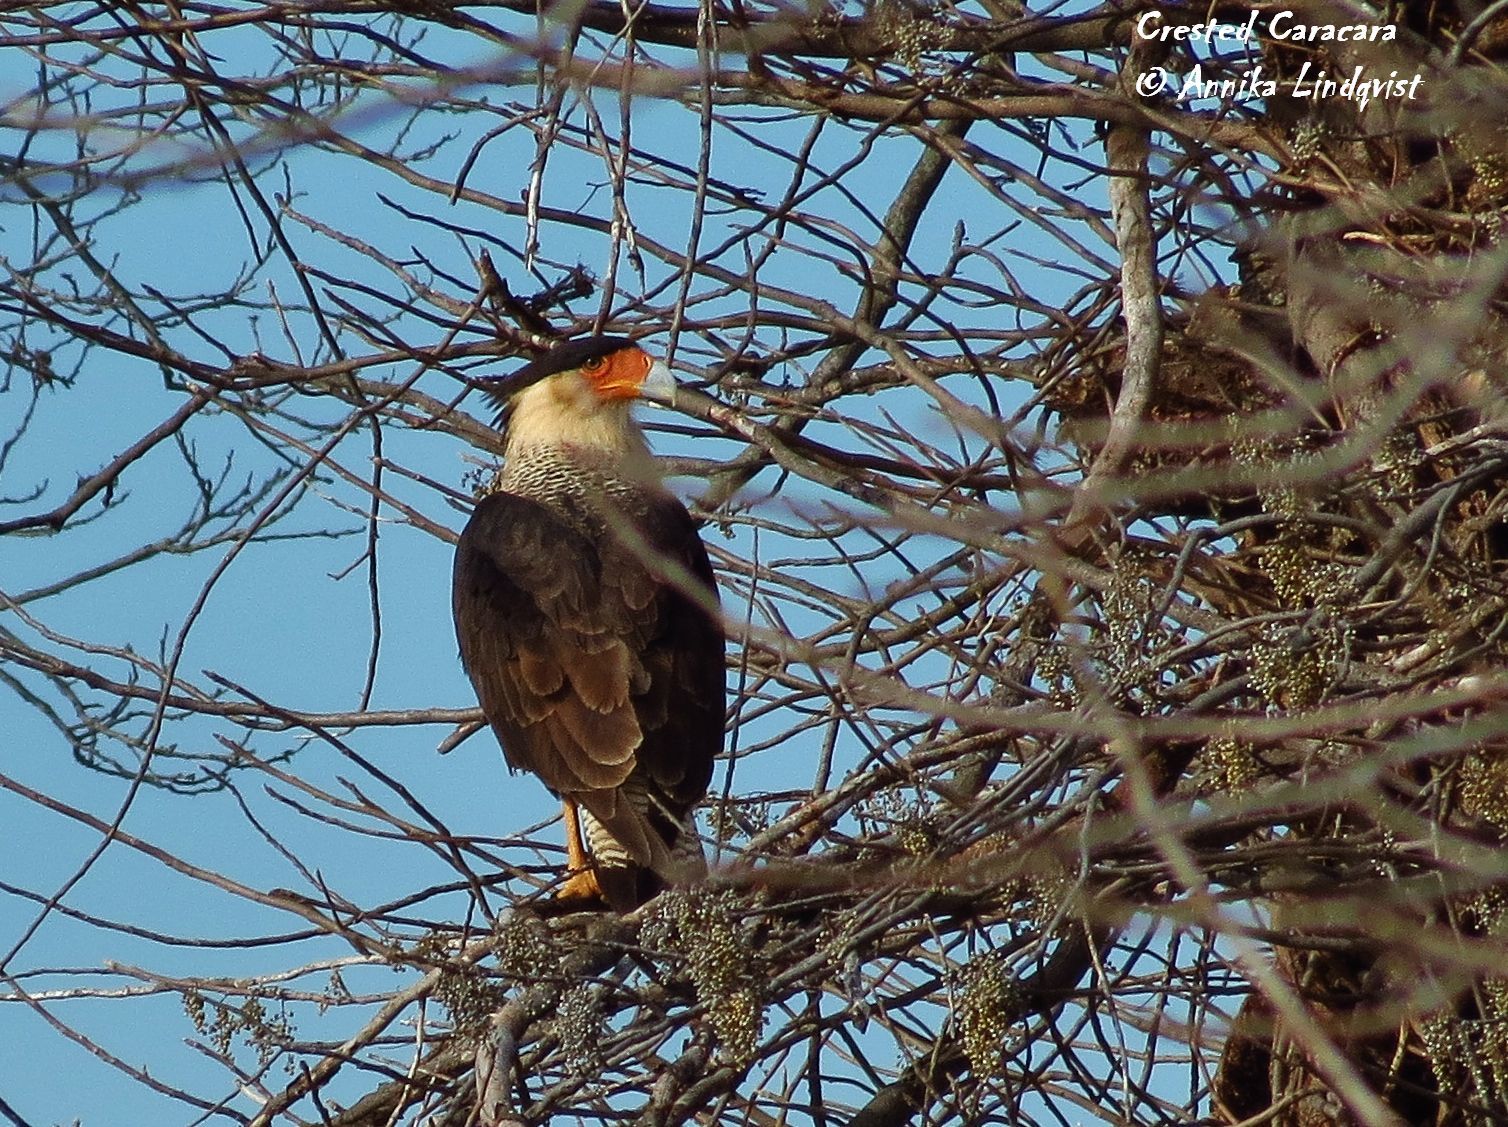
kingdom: Animalia
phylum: Chordata
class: Aves
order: Falconiformes
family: Falconidae
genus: Caracara
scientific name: Caracara plancus
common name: Southern caracara
